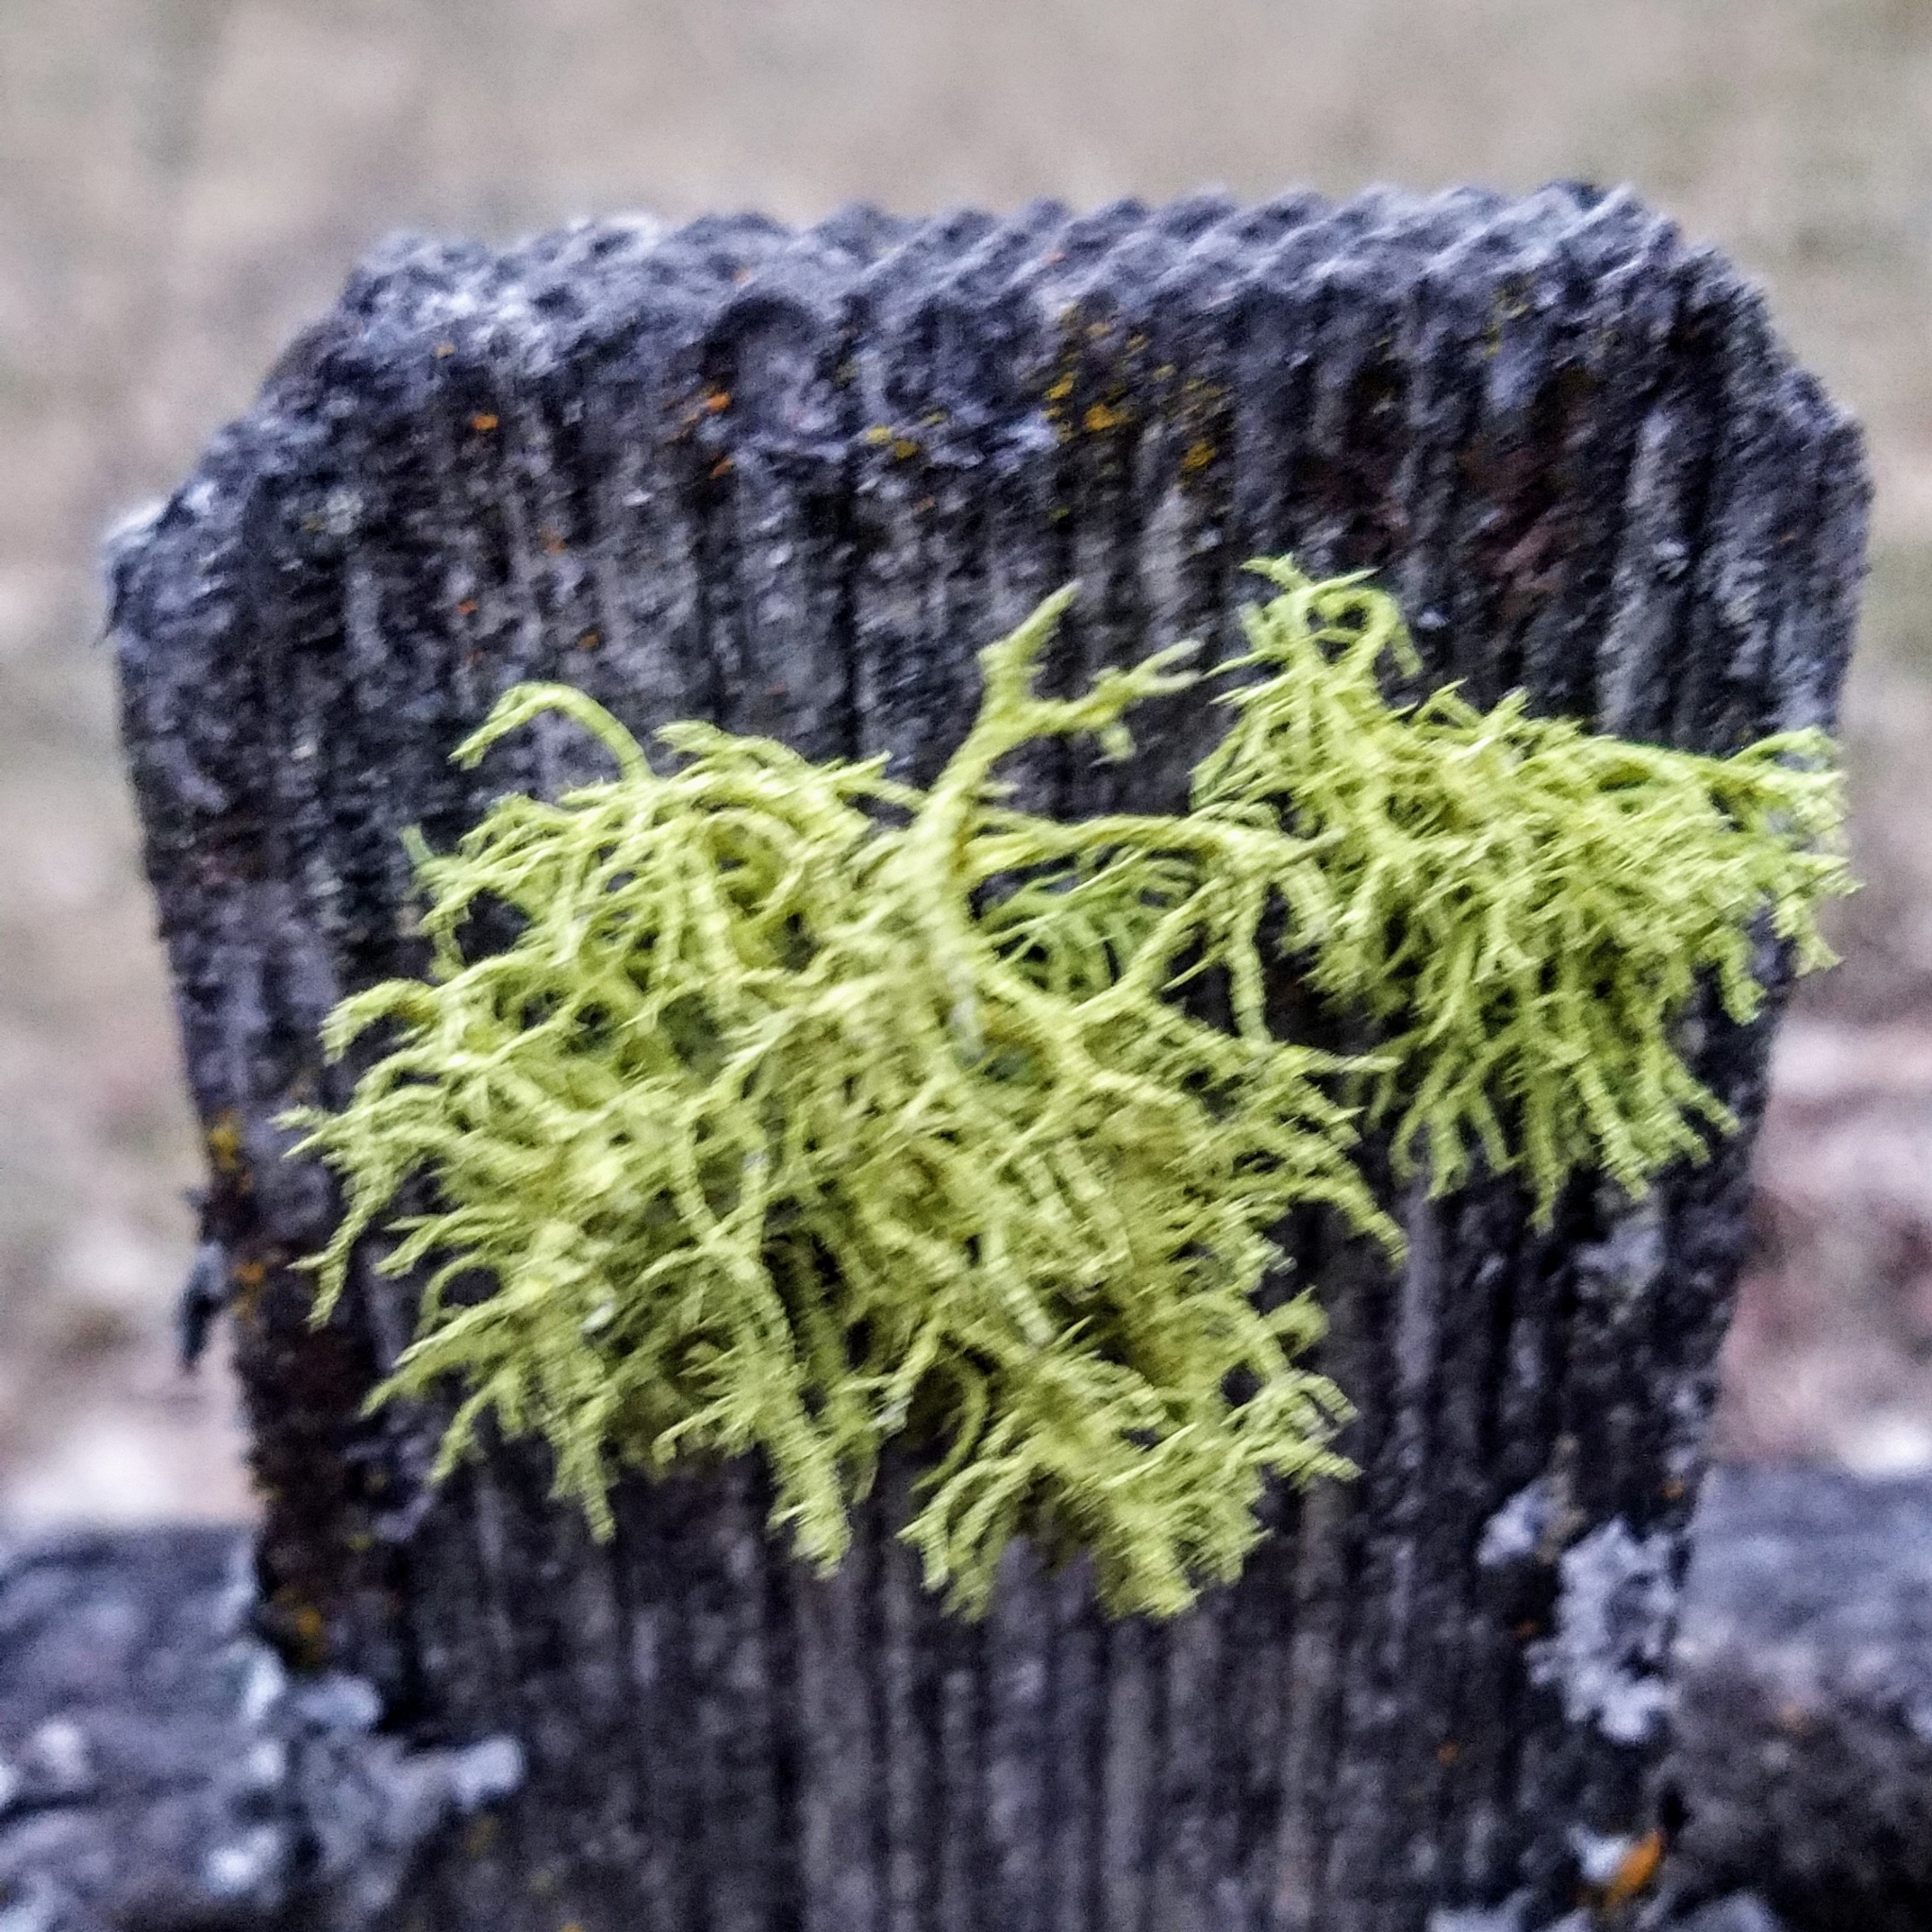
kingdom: Fungi
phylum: Ascomycota
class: Lecanoromycetes
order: Lecanorales
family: Parmeliaceae
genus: Letharia
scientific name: Letharia vulpina
